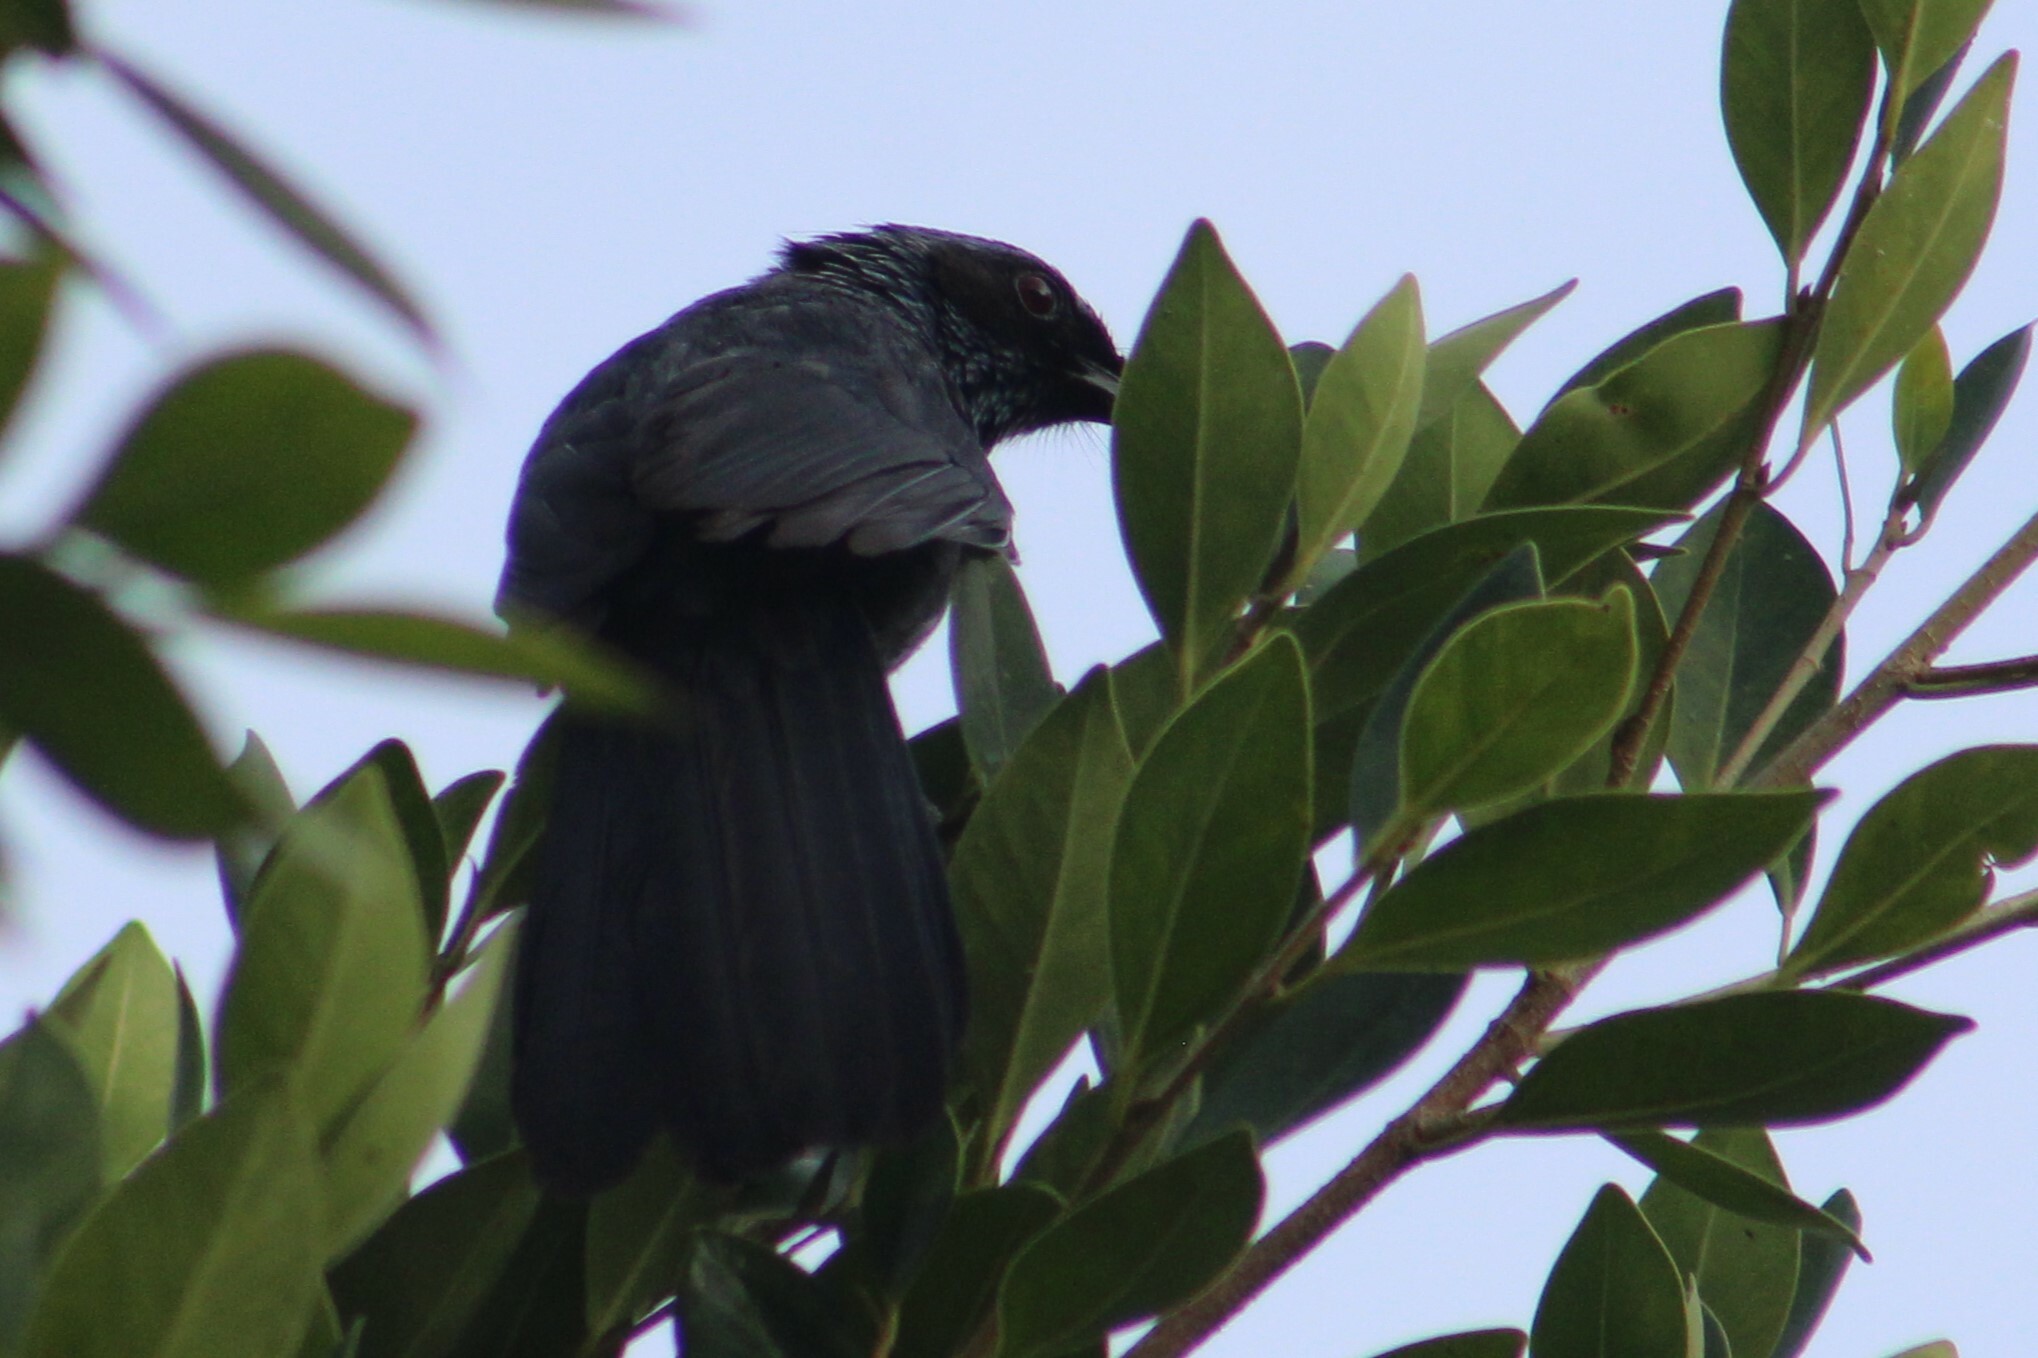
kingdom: Animalia
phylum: Chordata
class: Aves
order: Passeriformes
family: Mimidae
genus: Melanotis
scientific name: Melanotis caerulescens
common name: Blue mockingbird
